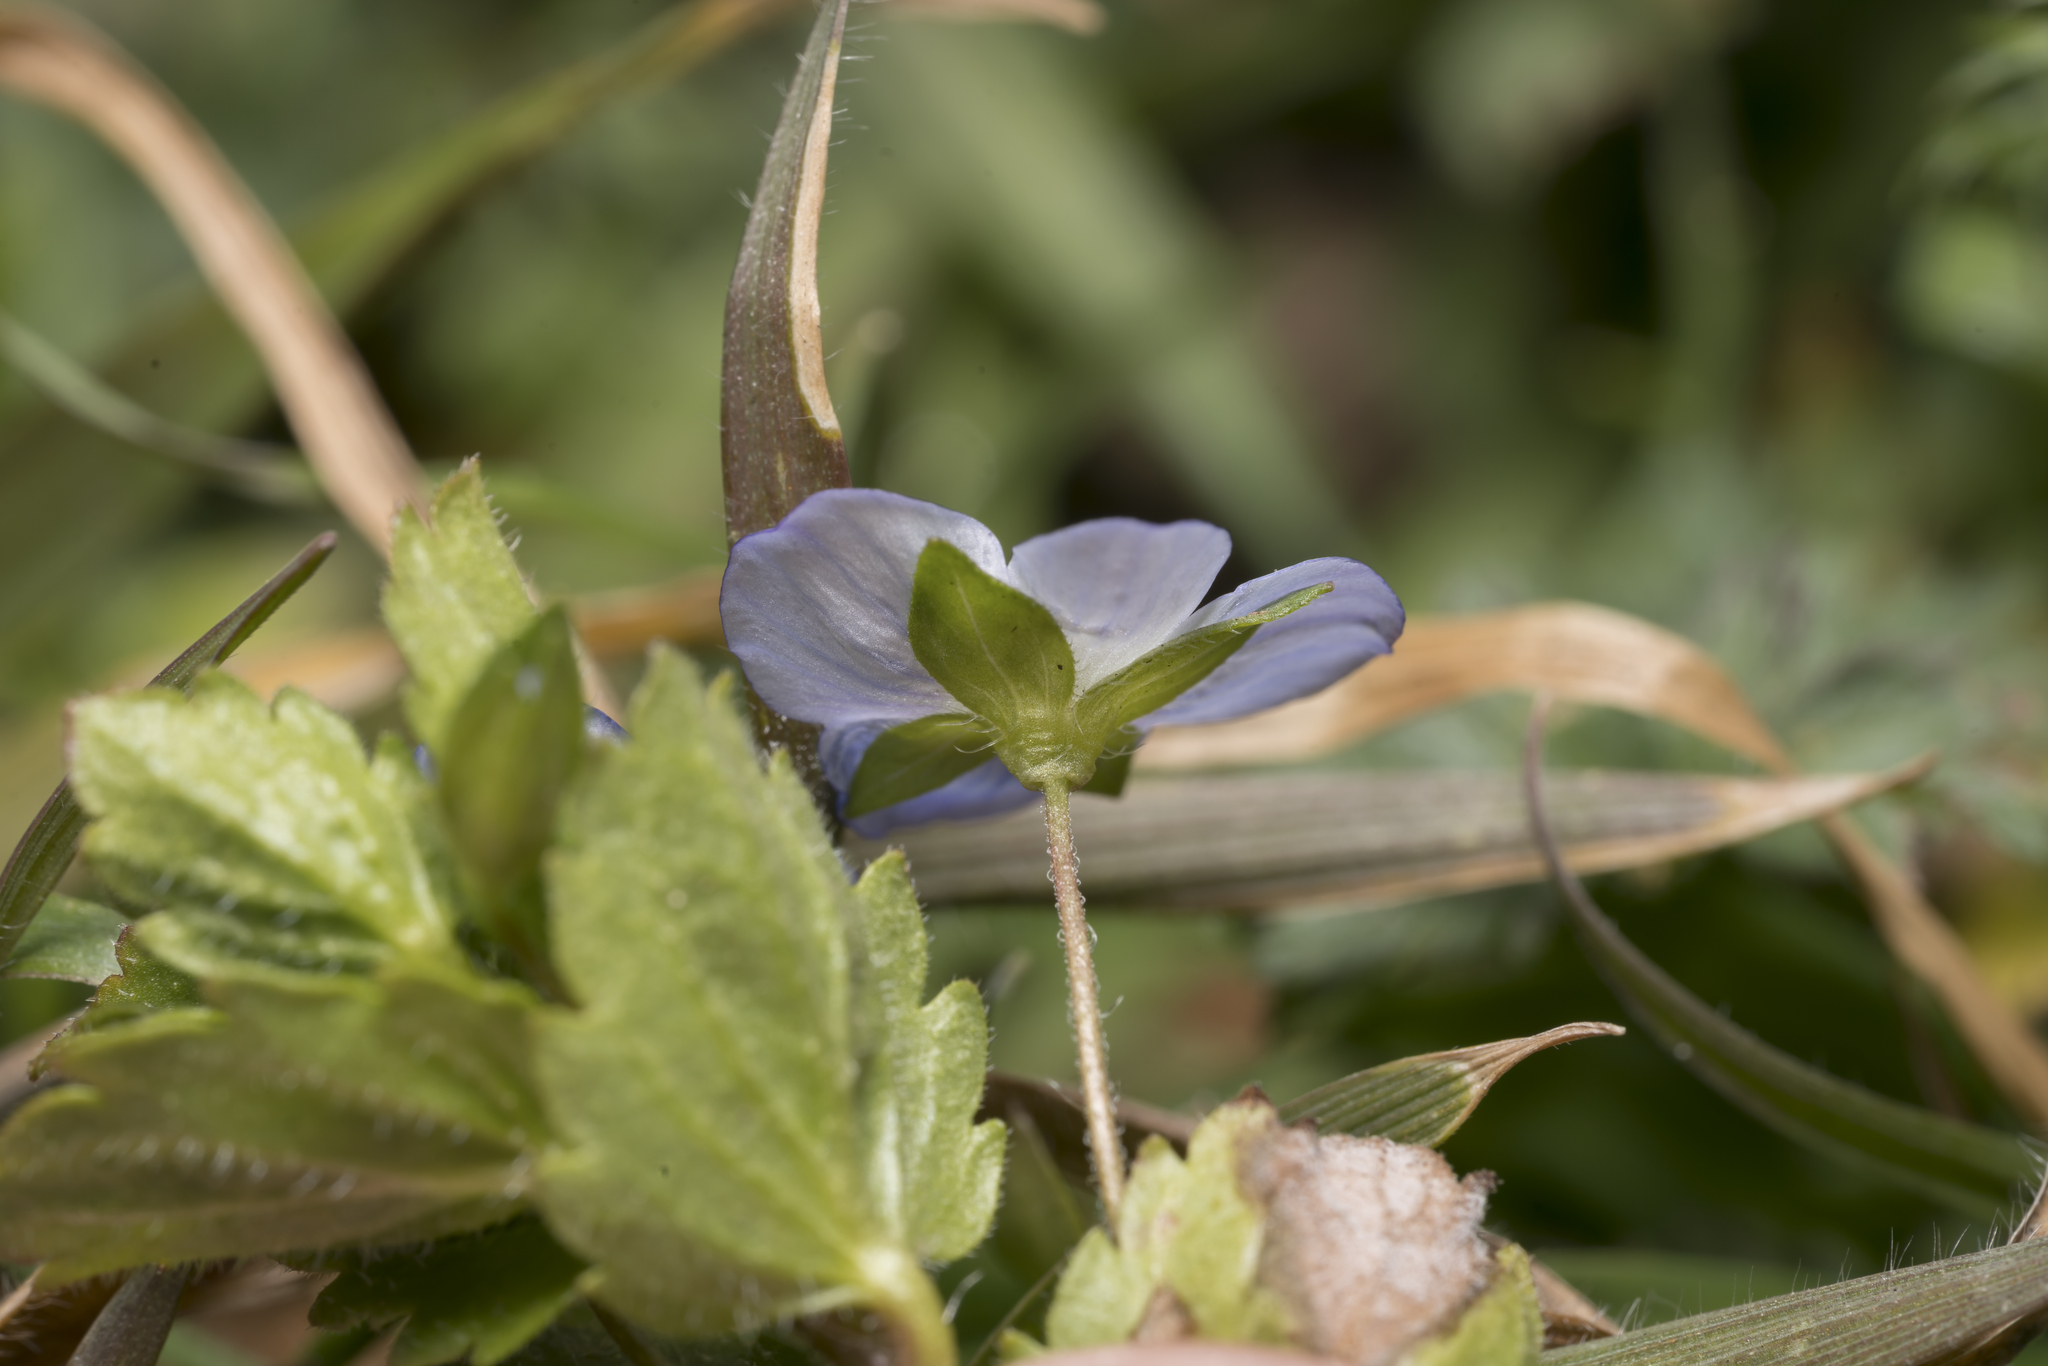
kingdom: Plantae
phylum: Tracheophyta
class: Magnoliopsida
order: Lamiales
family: Plantaginaceae
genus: Veronica
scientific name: Veronica persica
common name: Common field-speedwell
